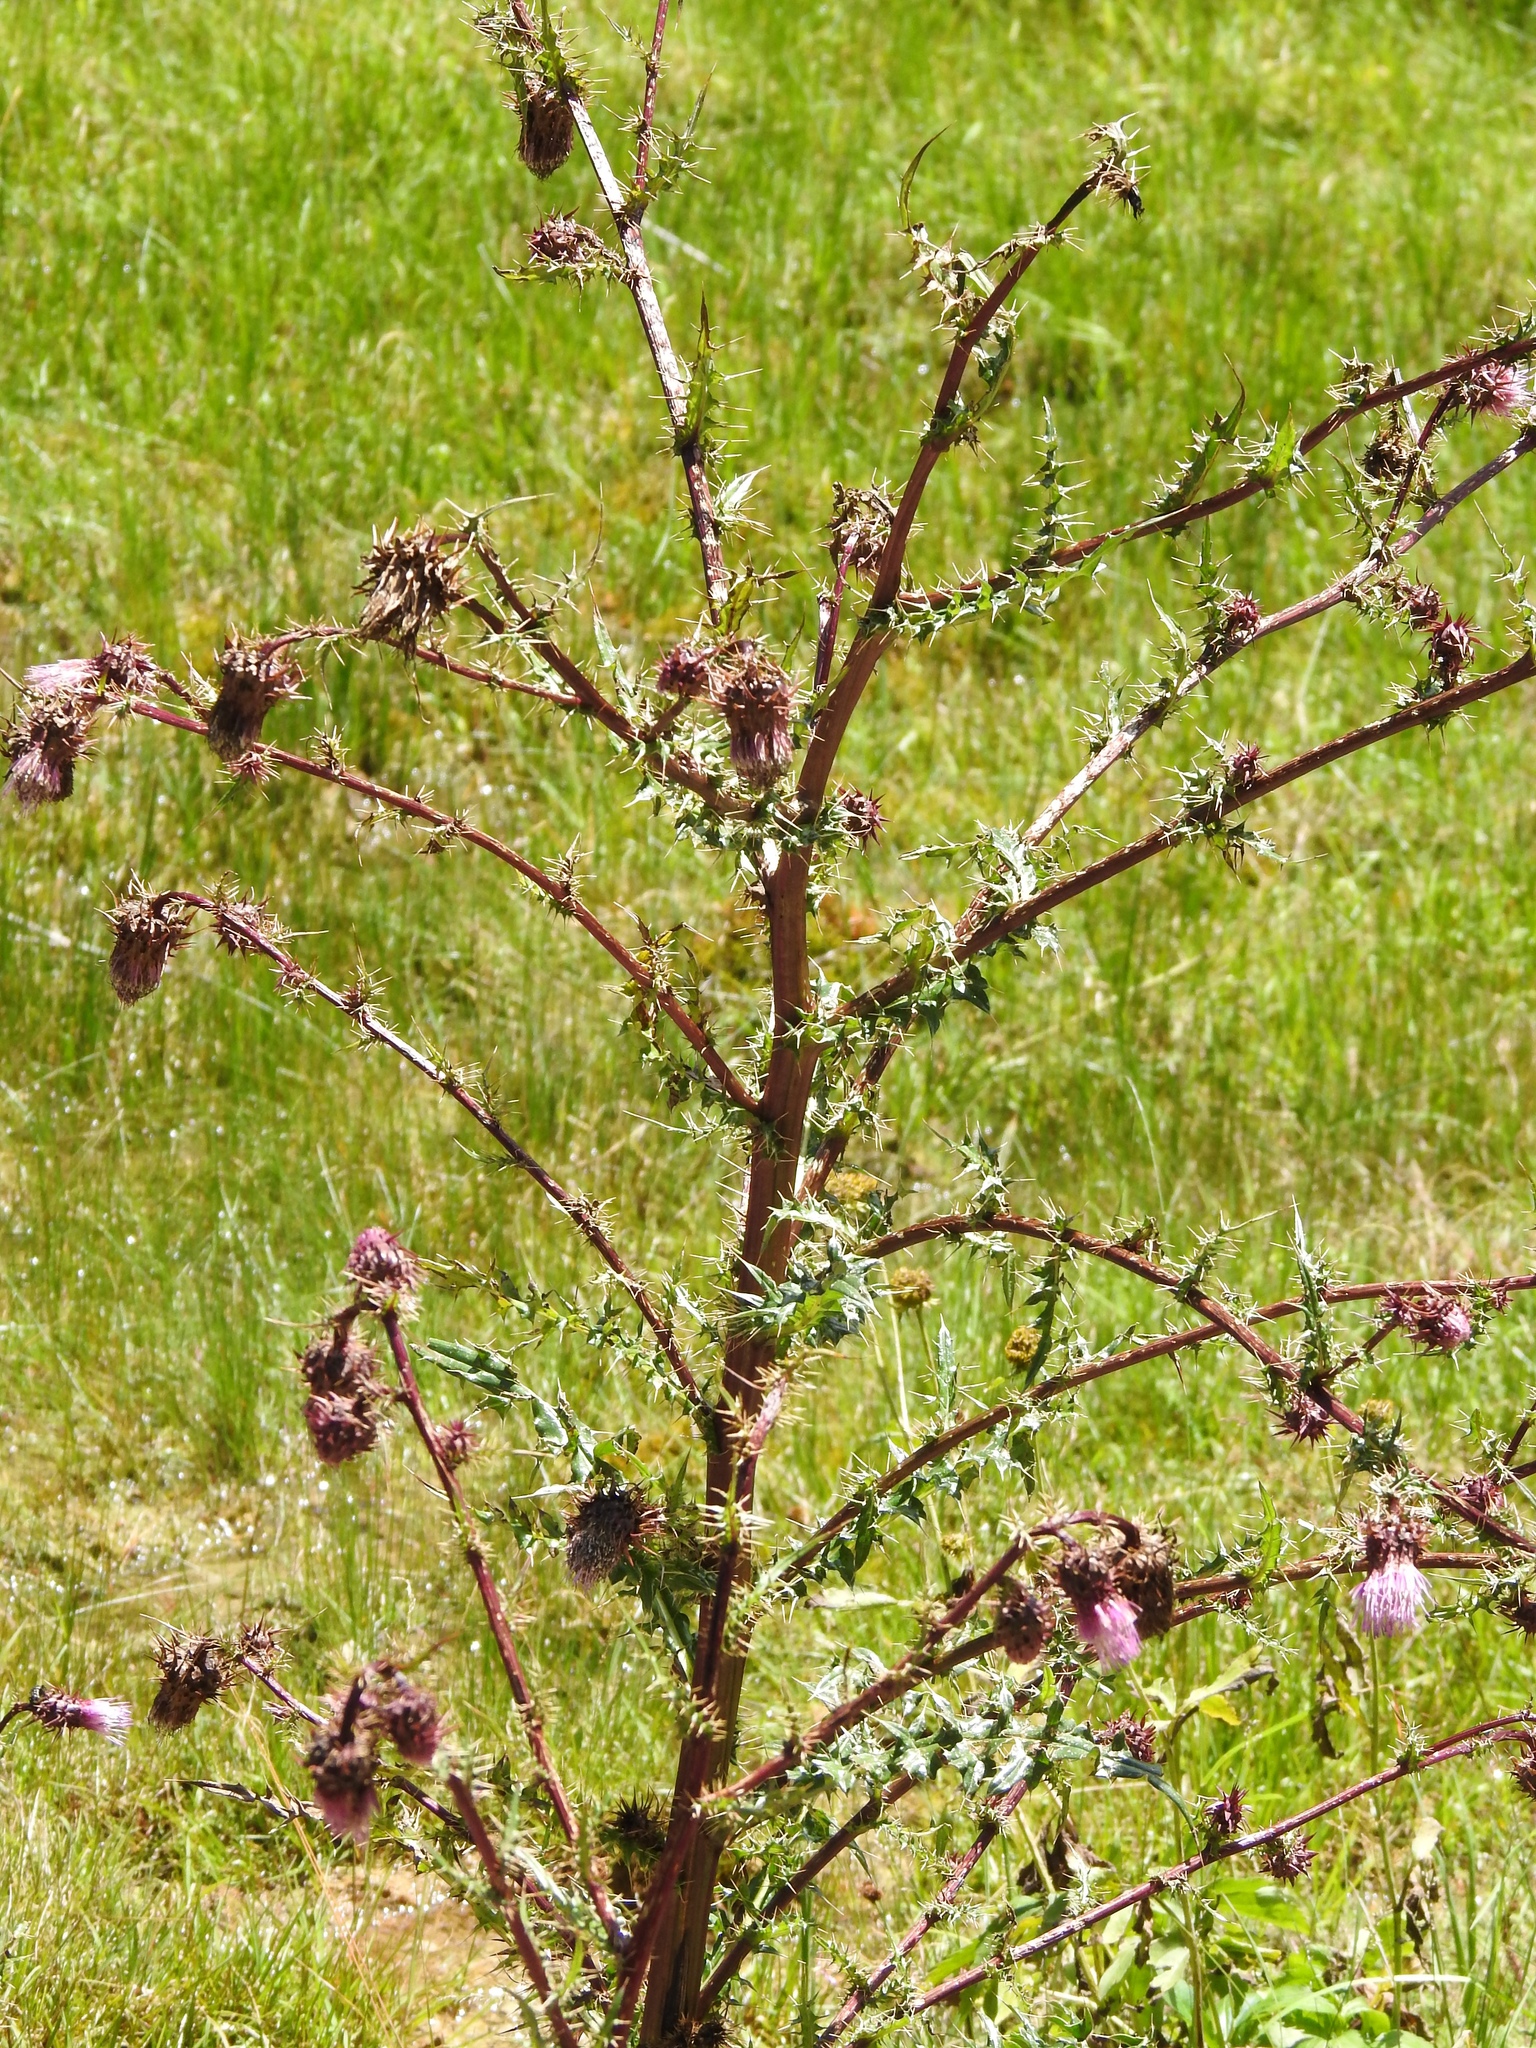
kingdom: Plantae
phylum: Tracheophyta
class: Magnoliopsida
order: Asterales
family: Asteraceae
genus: Cirsium
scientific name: Cirsium vinaceum
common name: Sacramento mountain thistle
